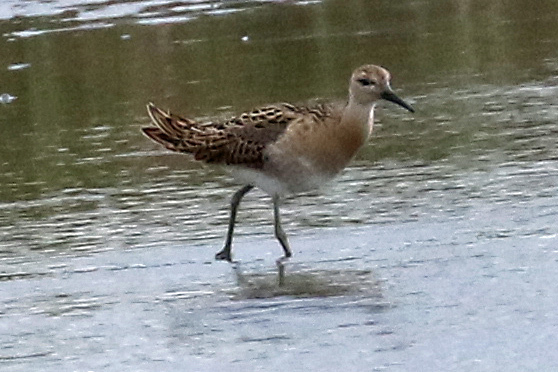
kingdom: Animalia
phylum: Chordata
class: Aves
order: Charadriiformes
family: Scolopacidae
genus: Calidris
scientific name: Calidris pugnax
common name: Ruff
